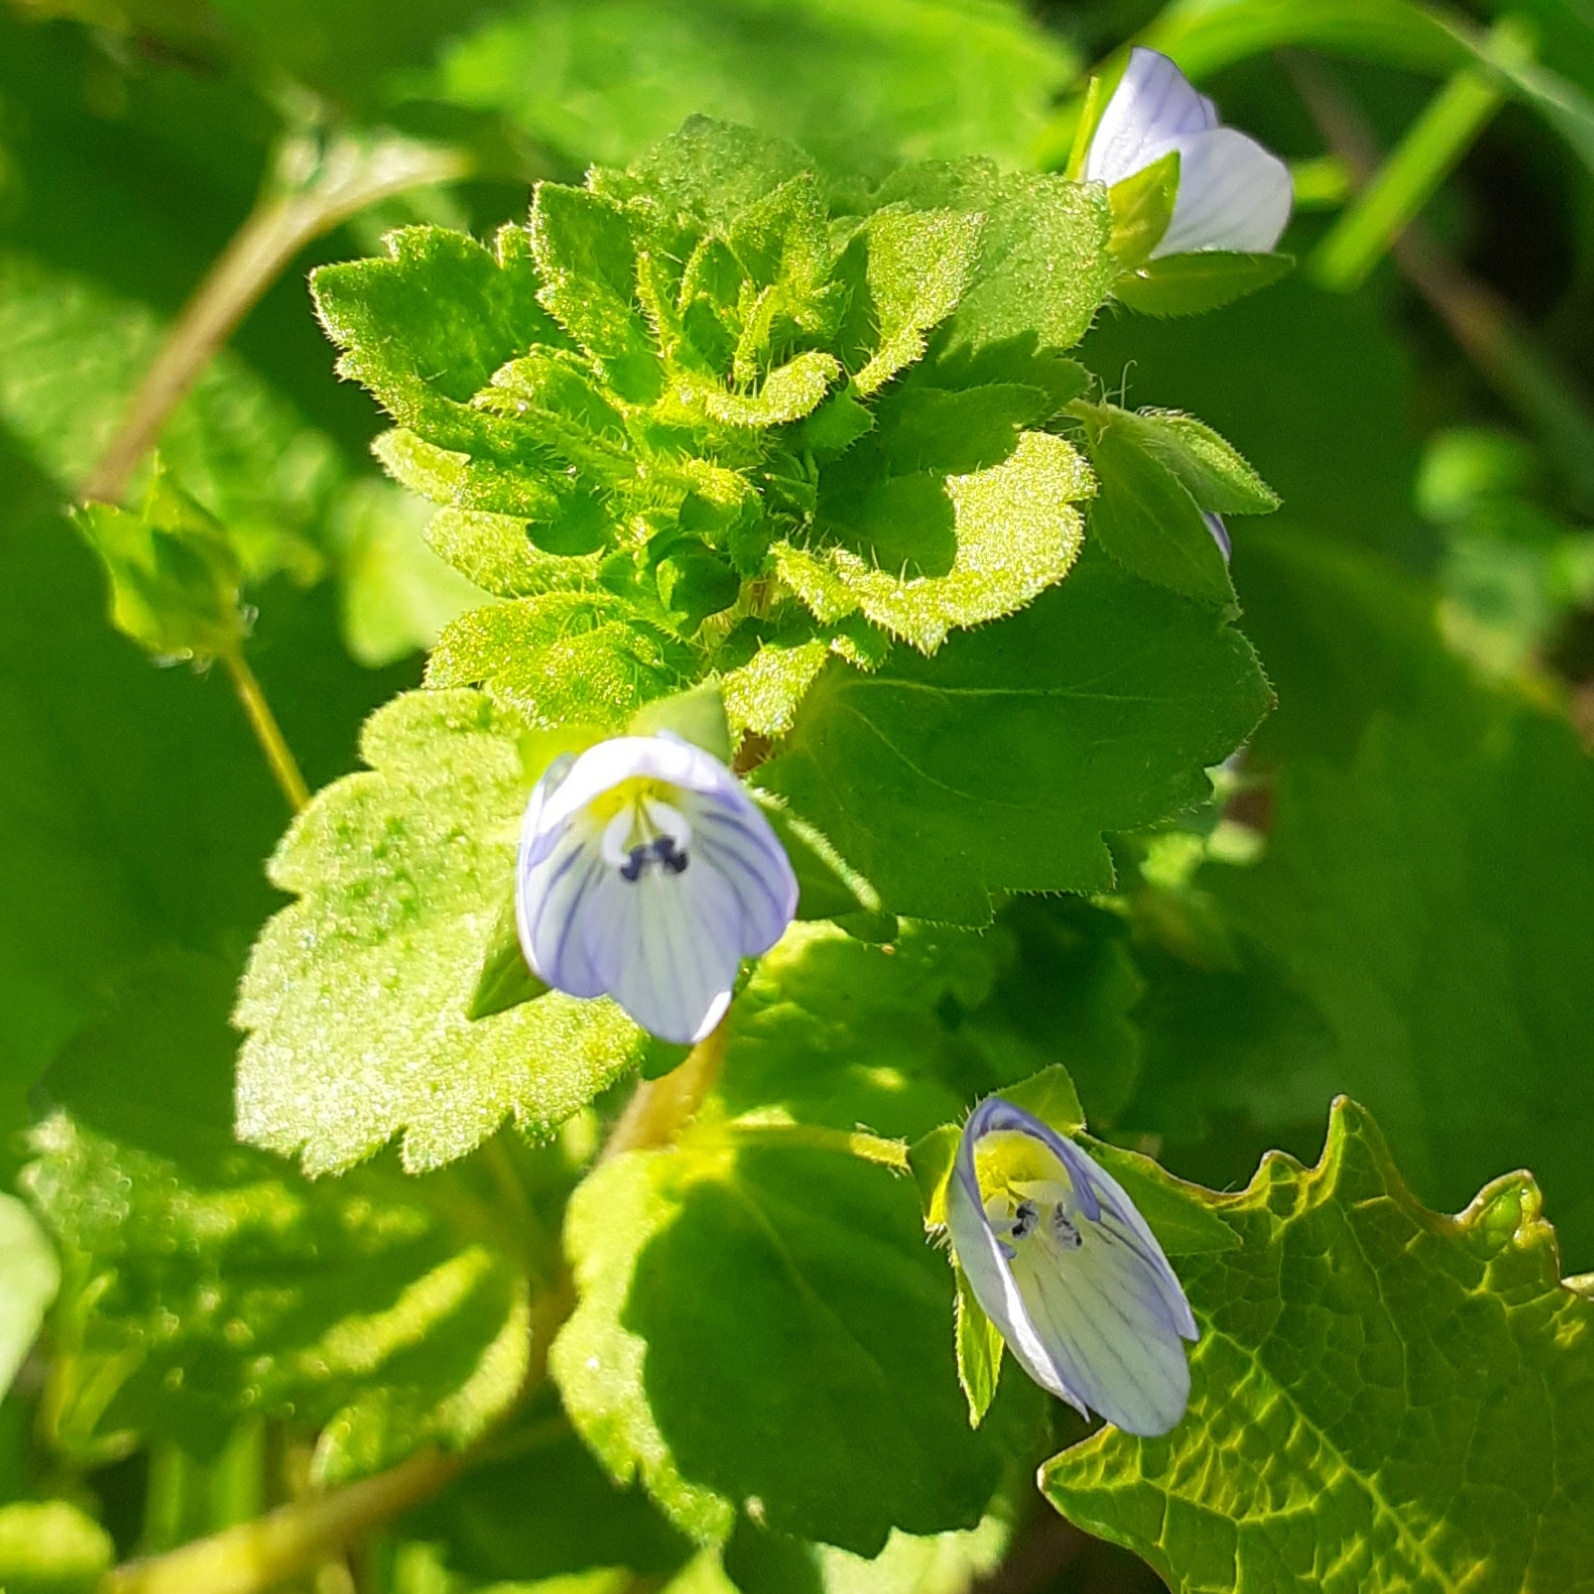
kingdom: Plantae
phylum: Tracheophyta
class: Magnoliopsida
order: Lamiales
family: Plantaginaceae
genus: Veronica
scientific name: Veronica persica
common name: Common field-speedwell
